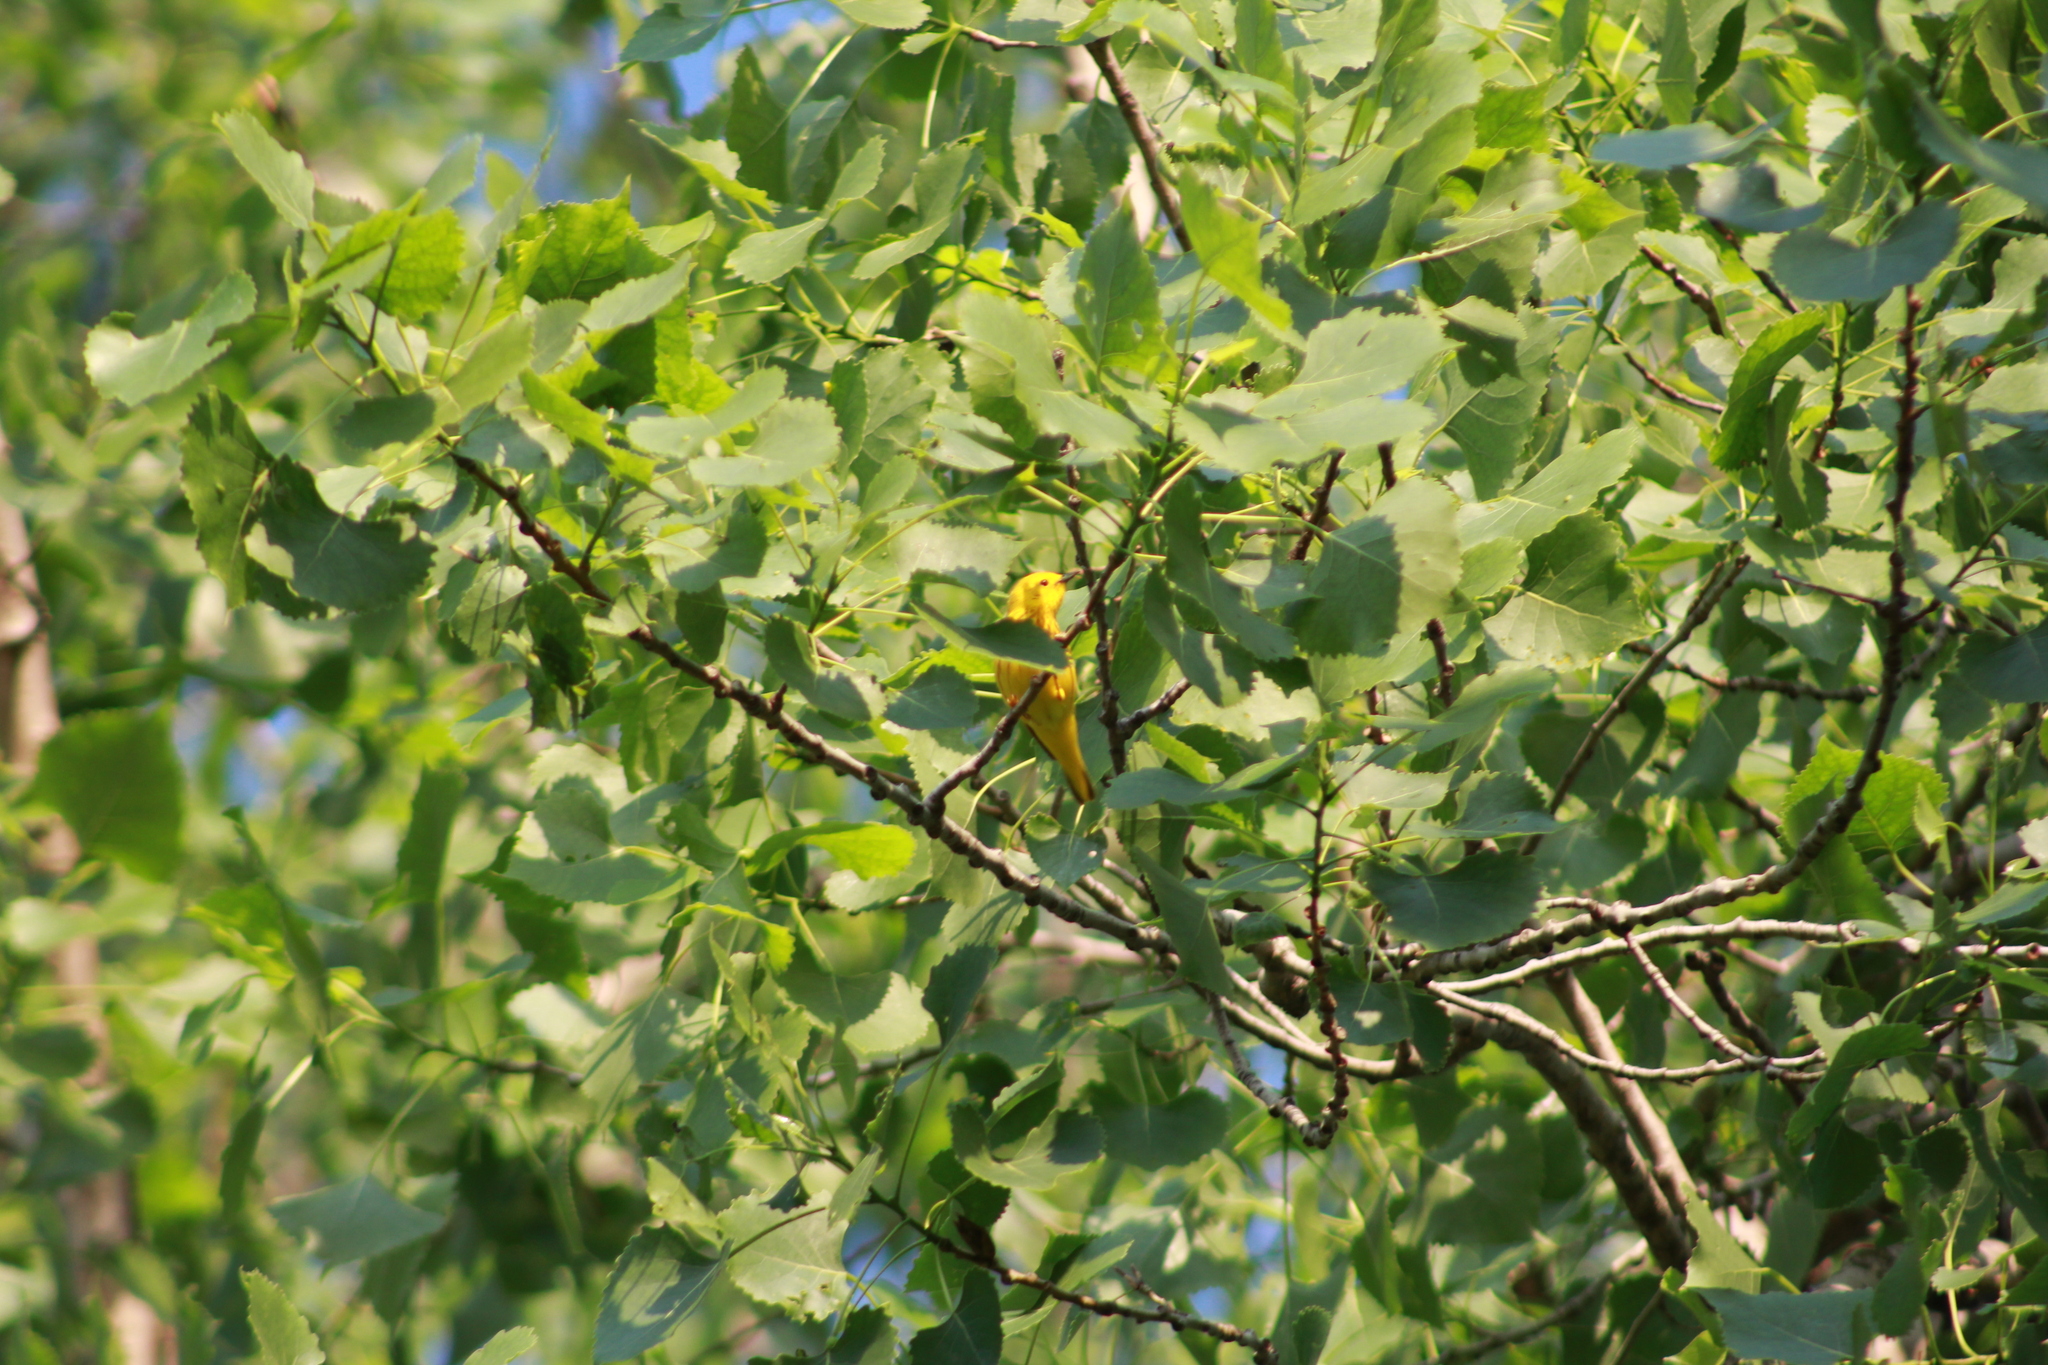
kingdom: Animalia
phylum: Chordata
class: Aves
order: Passeriformes
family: Parulidae
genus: Setophaga
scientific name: Setophaga petechia
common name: Yellow warbler
